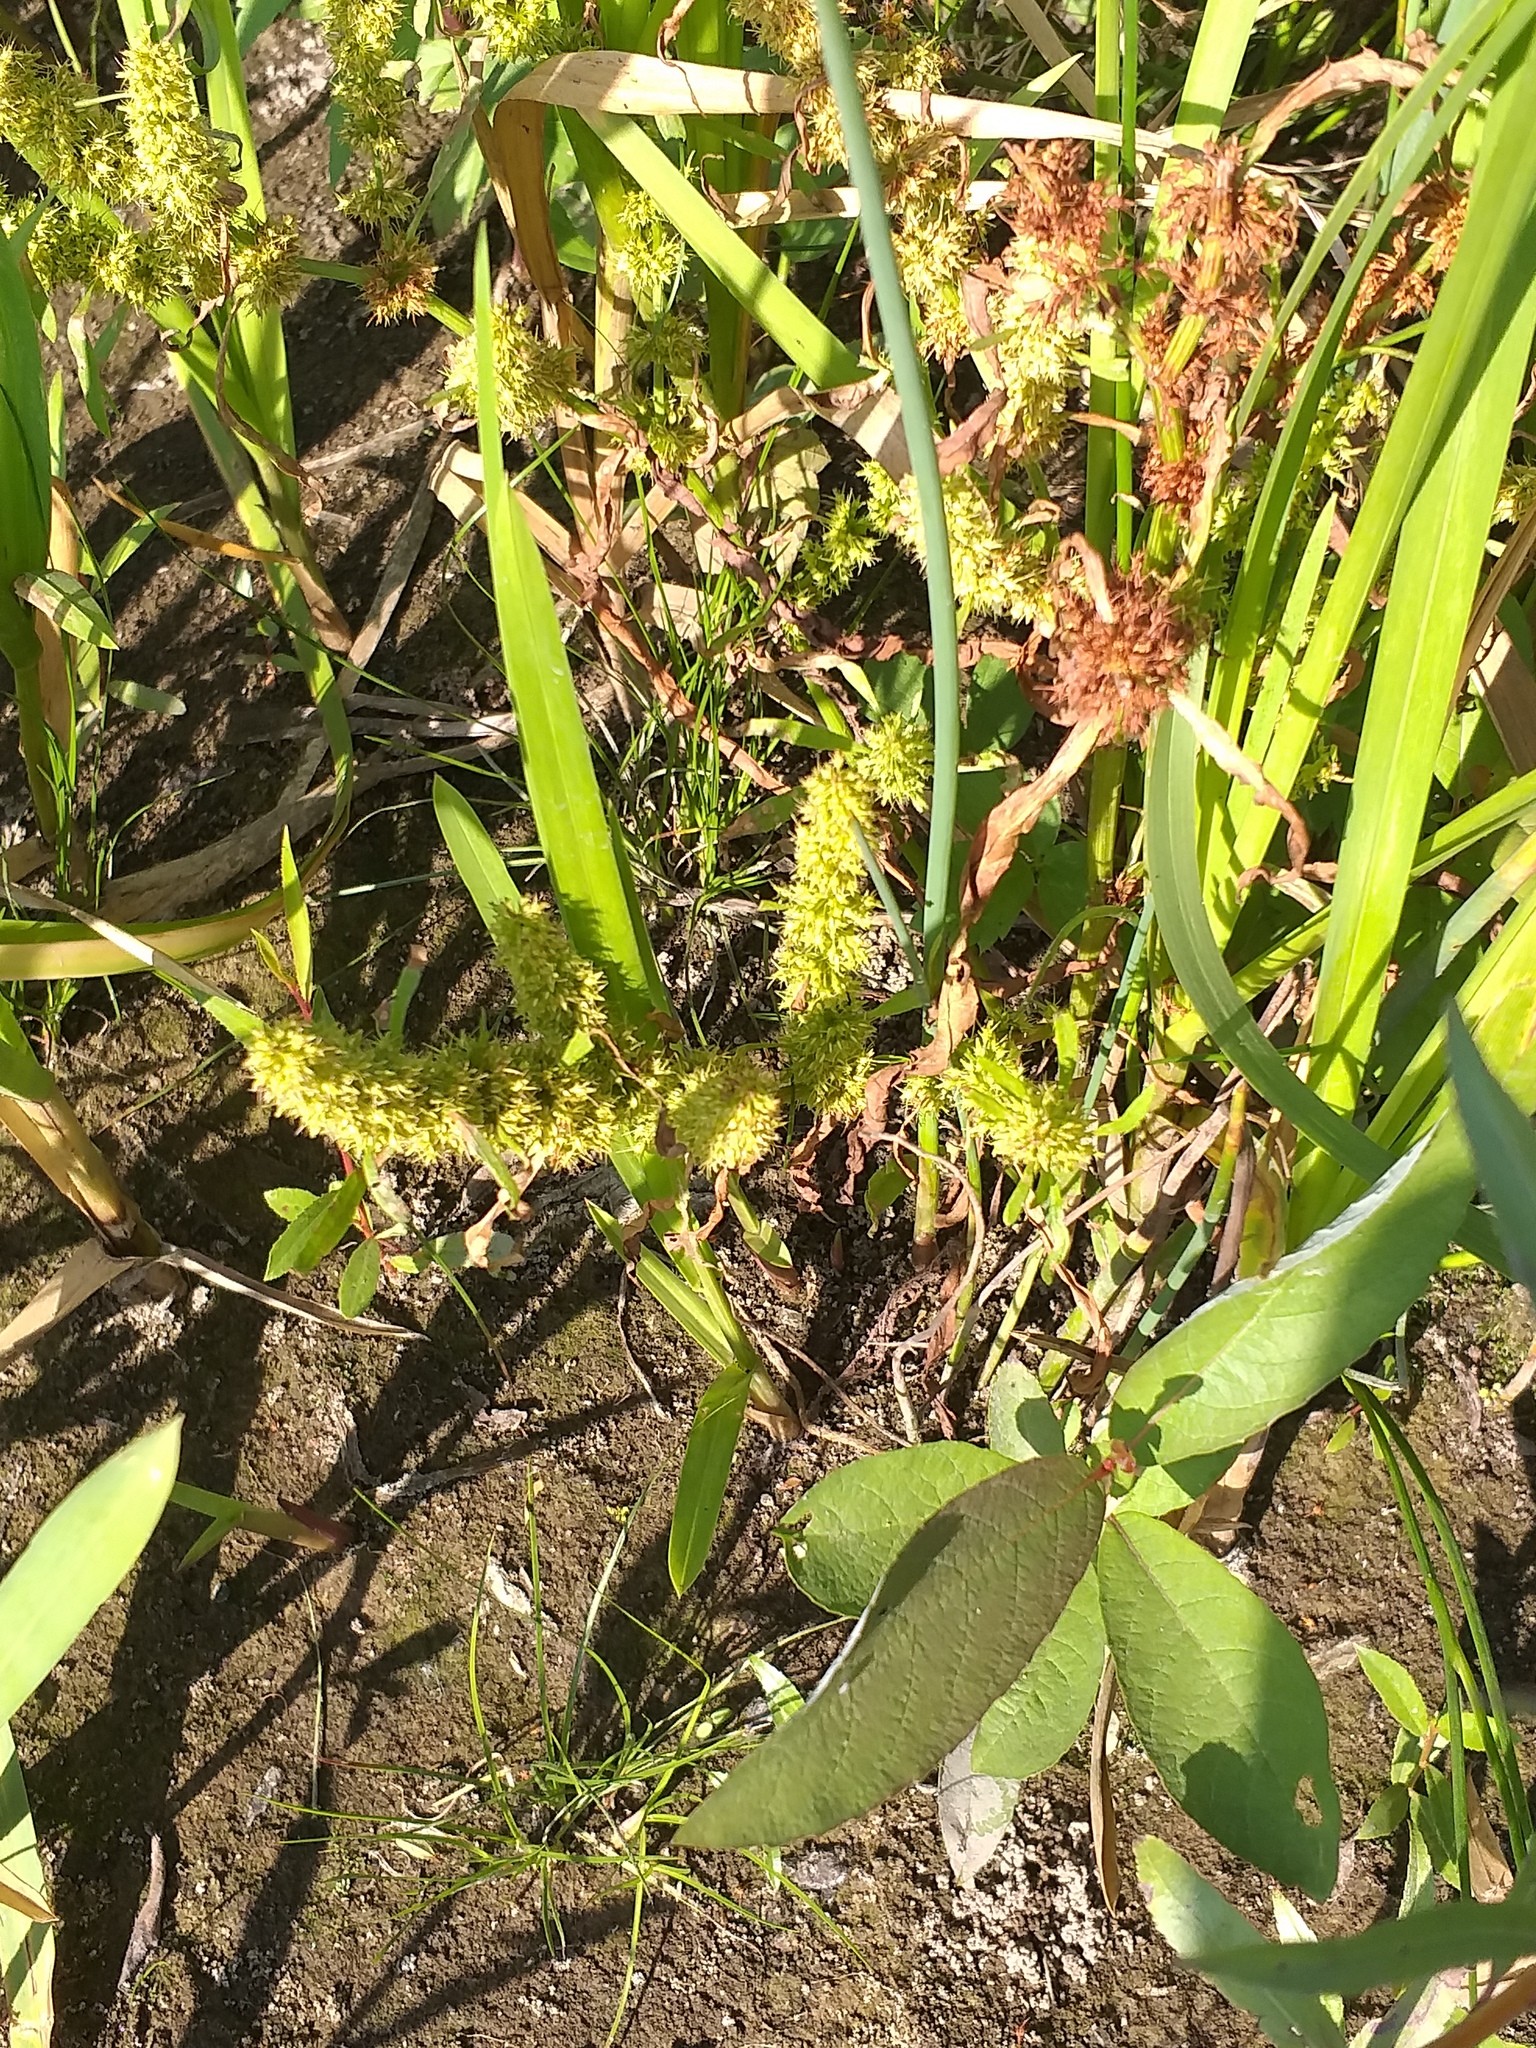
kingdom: Plantae
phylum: Tracheophyta
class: Magnoliopsida
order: Caryophyllales
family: Polygonaceae
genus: Rumex
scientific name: Rumex maritimus
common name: Golden dock
